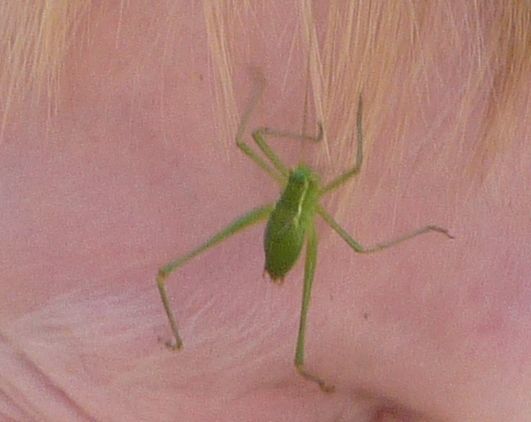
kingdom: Animalia
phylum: Arthropoda
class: Insecta
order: Orthoptera
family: Tettigoniidae
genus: Leptophyes
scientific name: Leptophyes punctatissima
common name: Speckled bush-cricket
